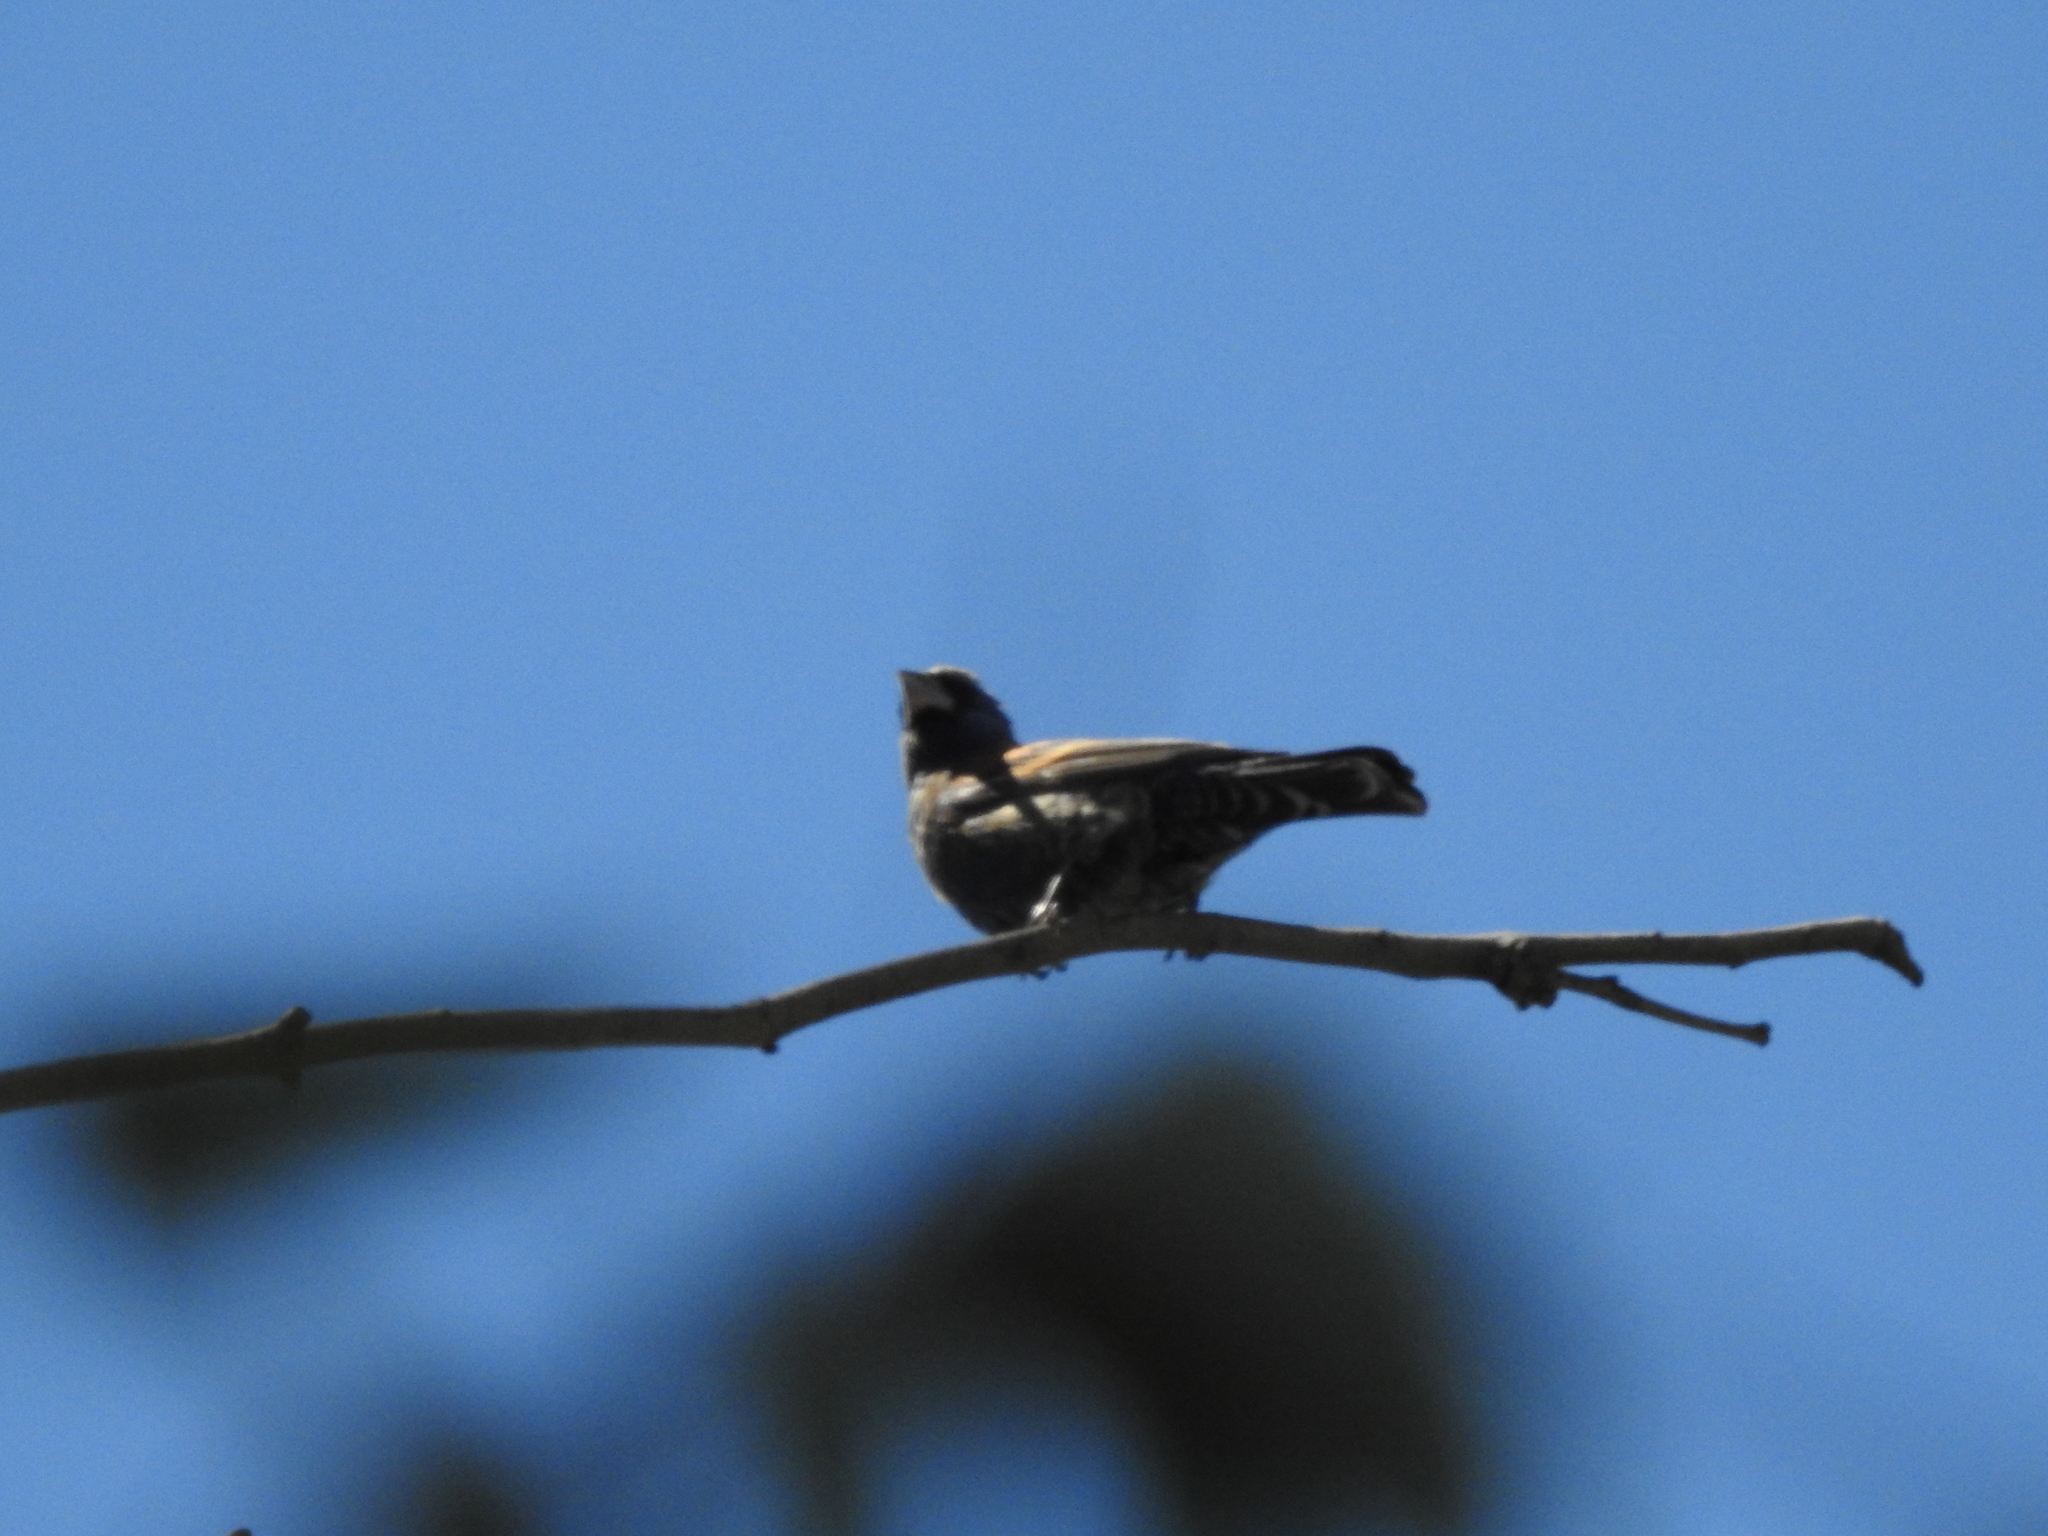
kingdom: Animalia
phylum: Chordata
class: Aves
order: Passeriformes
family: Cardinalidae
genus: Passerina
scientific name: Passerina caerulea
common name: Blue grosbeak
